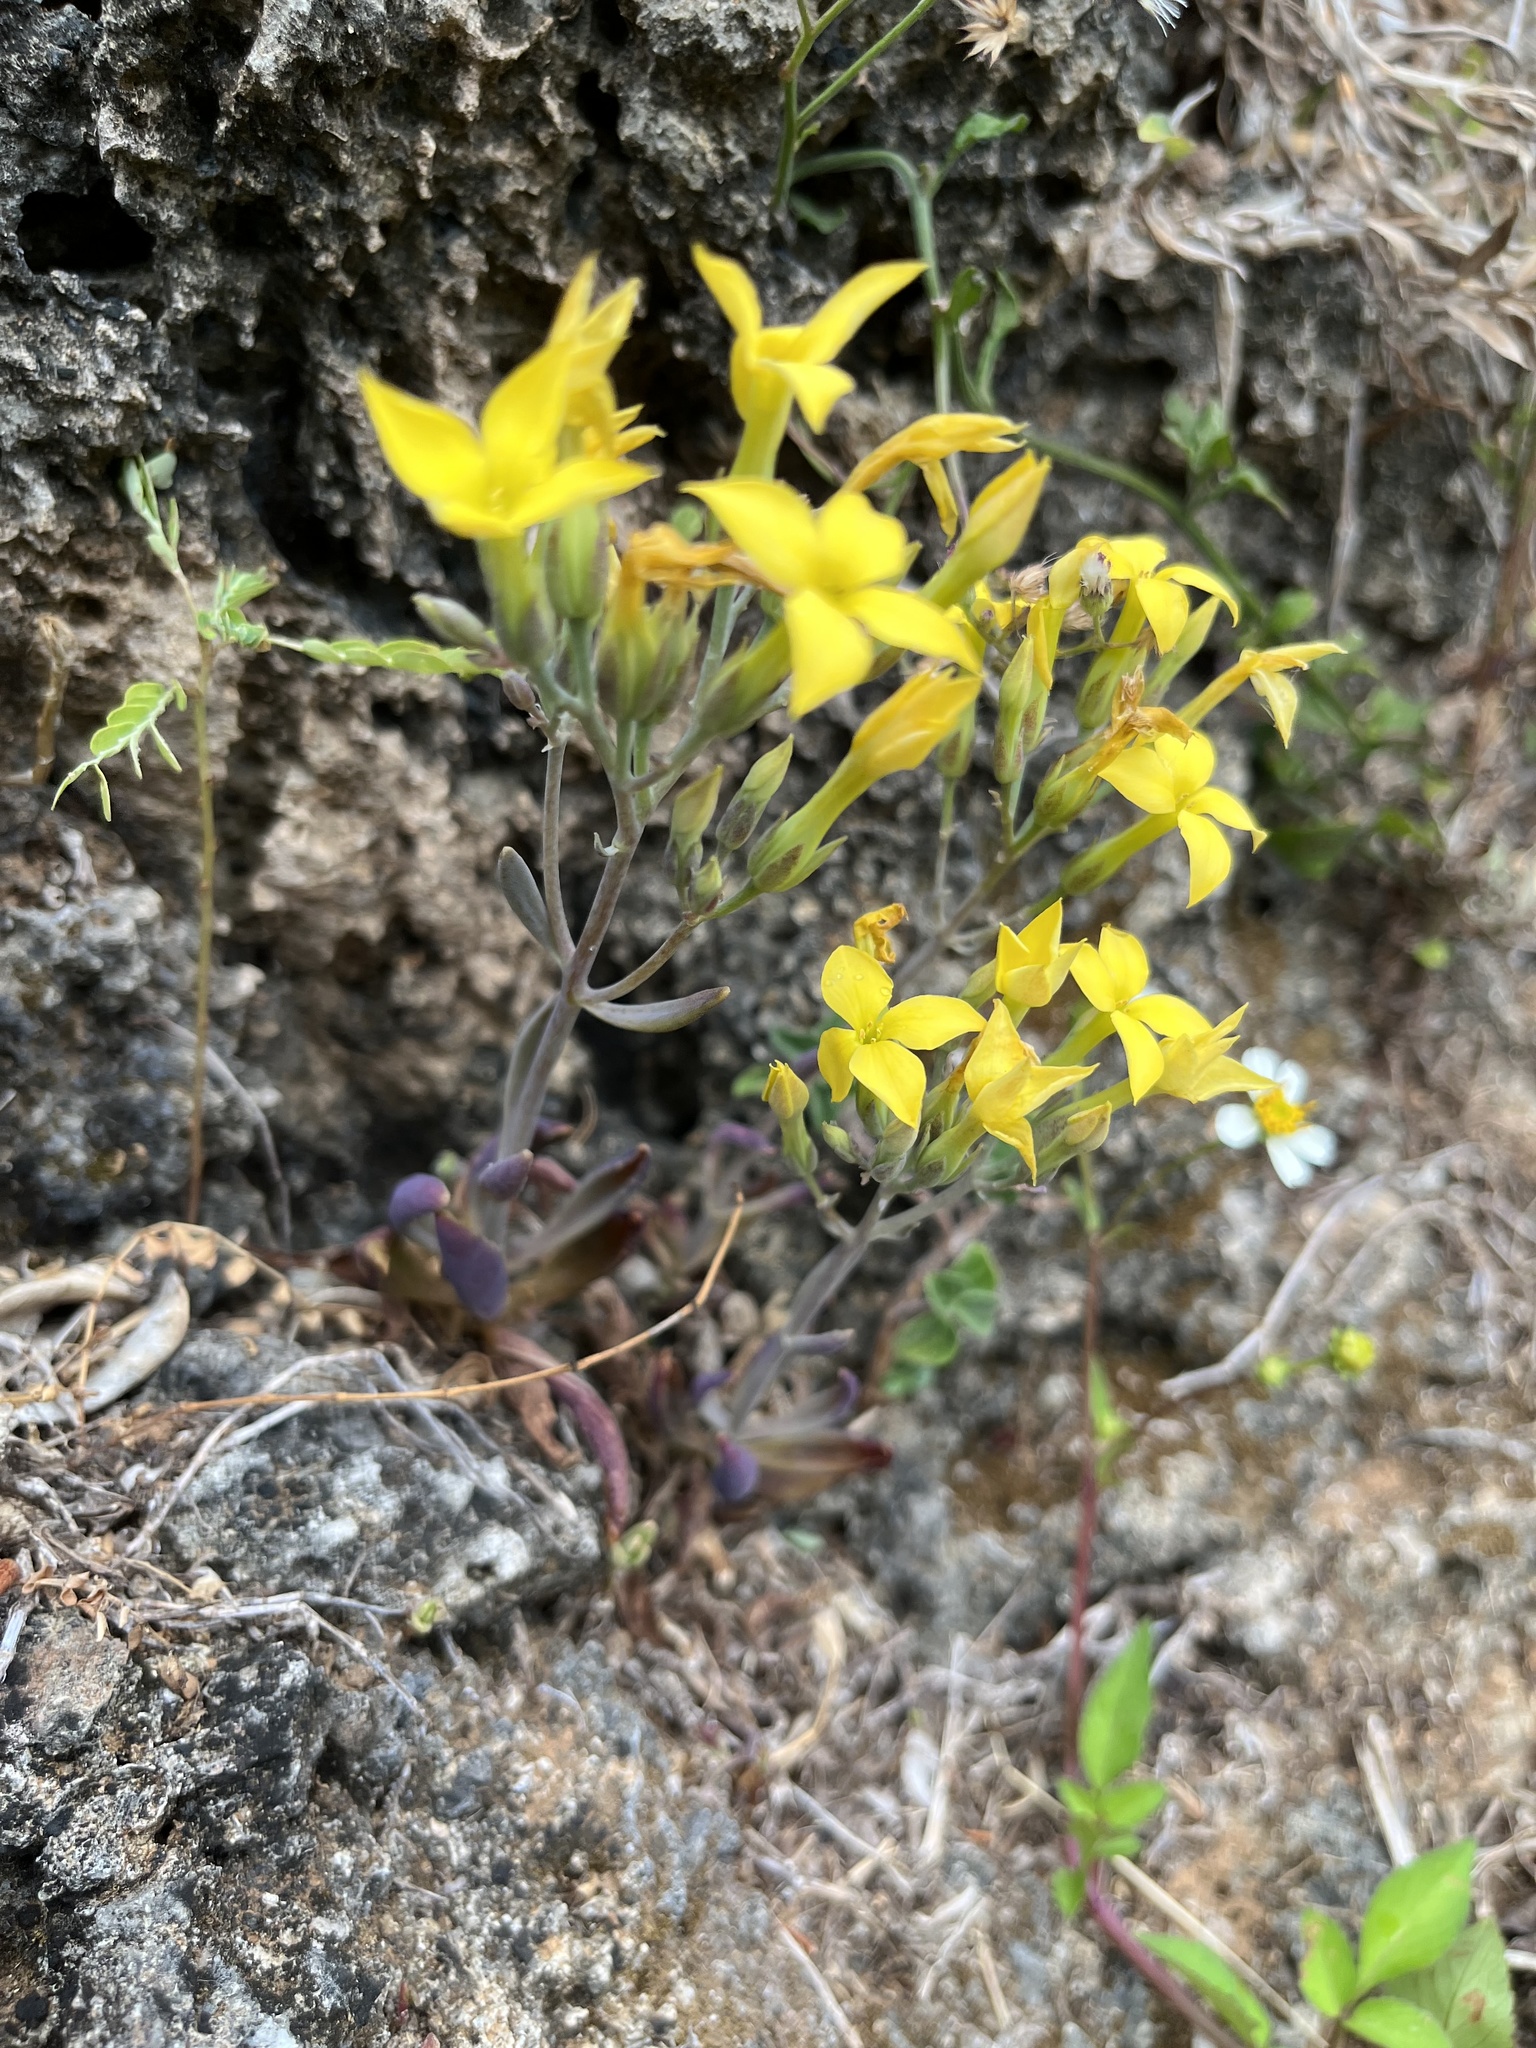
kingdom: Plantae
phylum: Tracheophyta
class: Magnoliopsida
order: Saxifragales
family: Crassulaceae
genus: Kalanchoe
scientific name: Kalanchoe integra
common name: Neverdie
